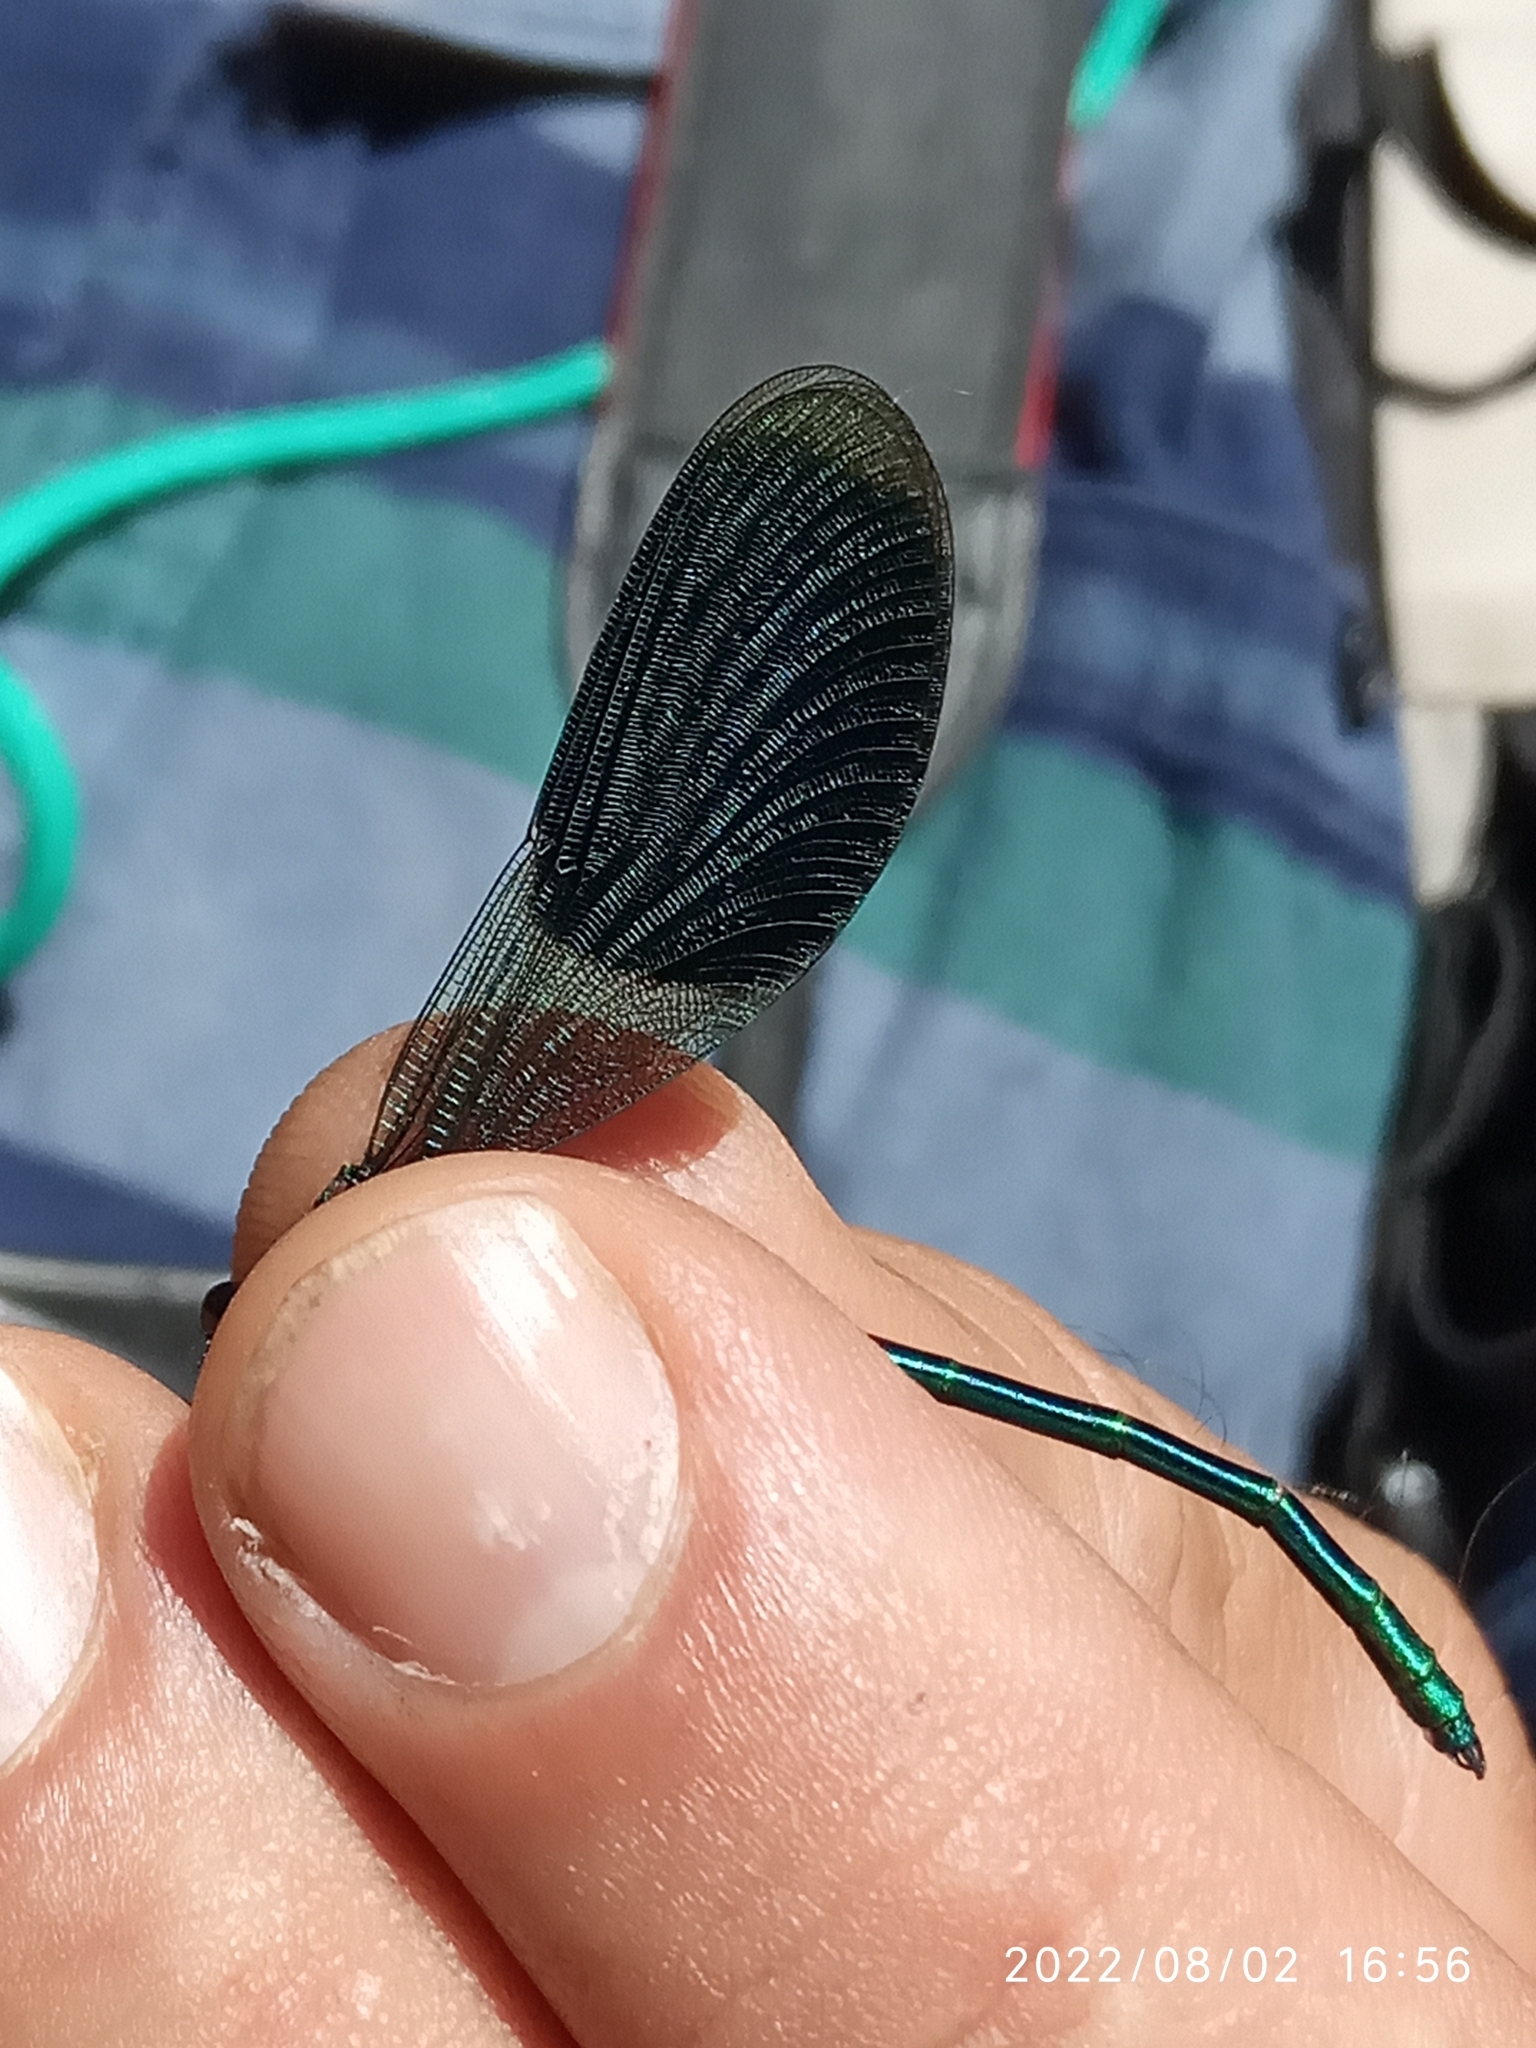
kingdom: Animalia
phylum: Arthropoda
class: Insecta
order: Odonata
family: Calopterygidae
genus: Calopteryx
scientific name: Calopteryx splendens
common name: Banded demoiselle
